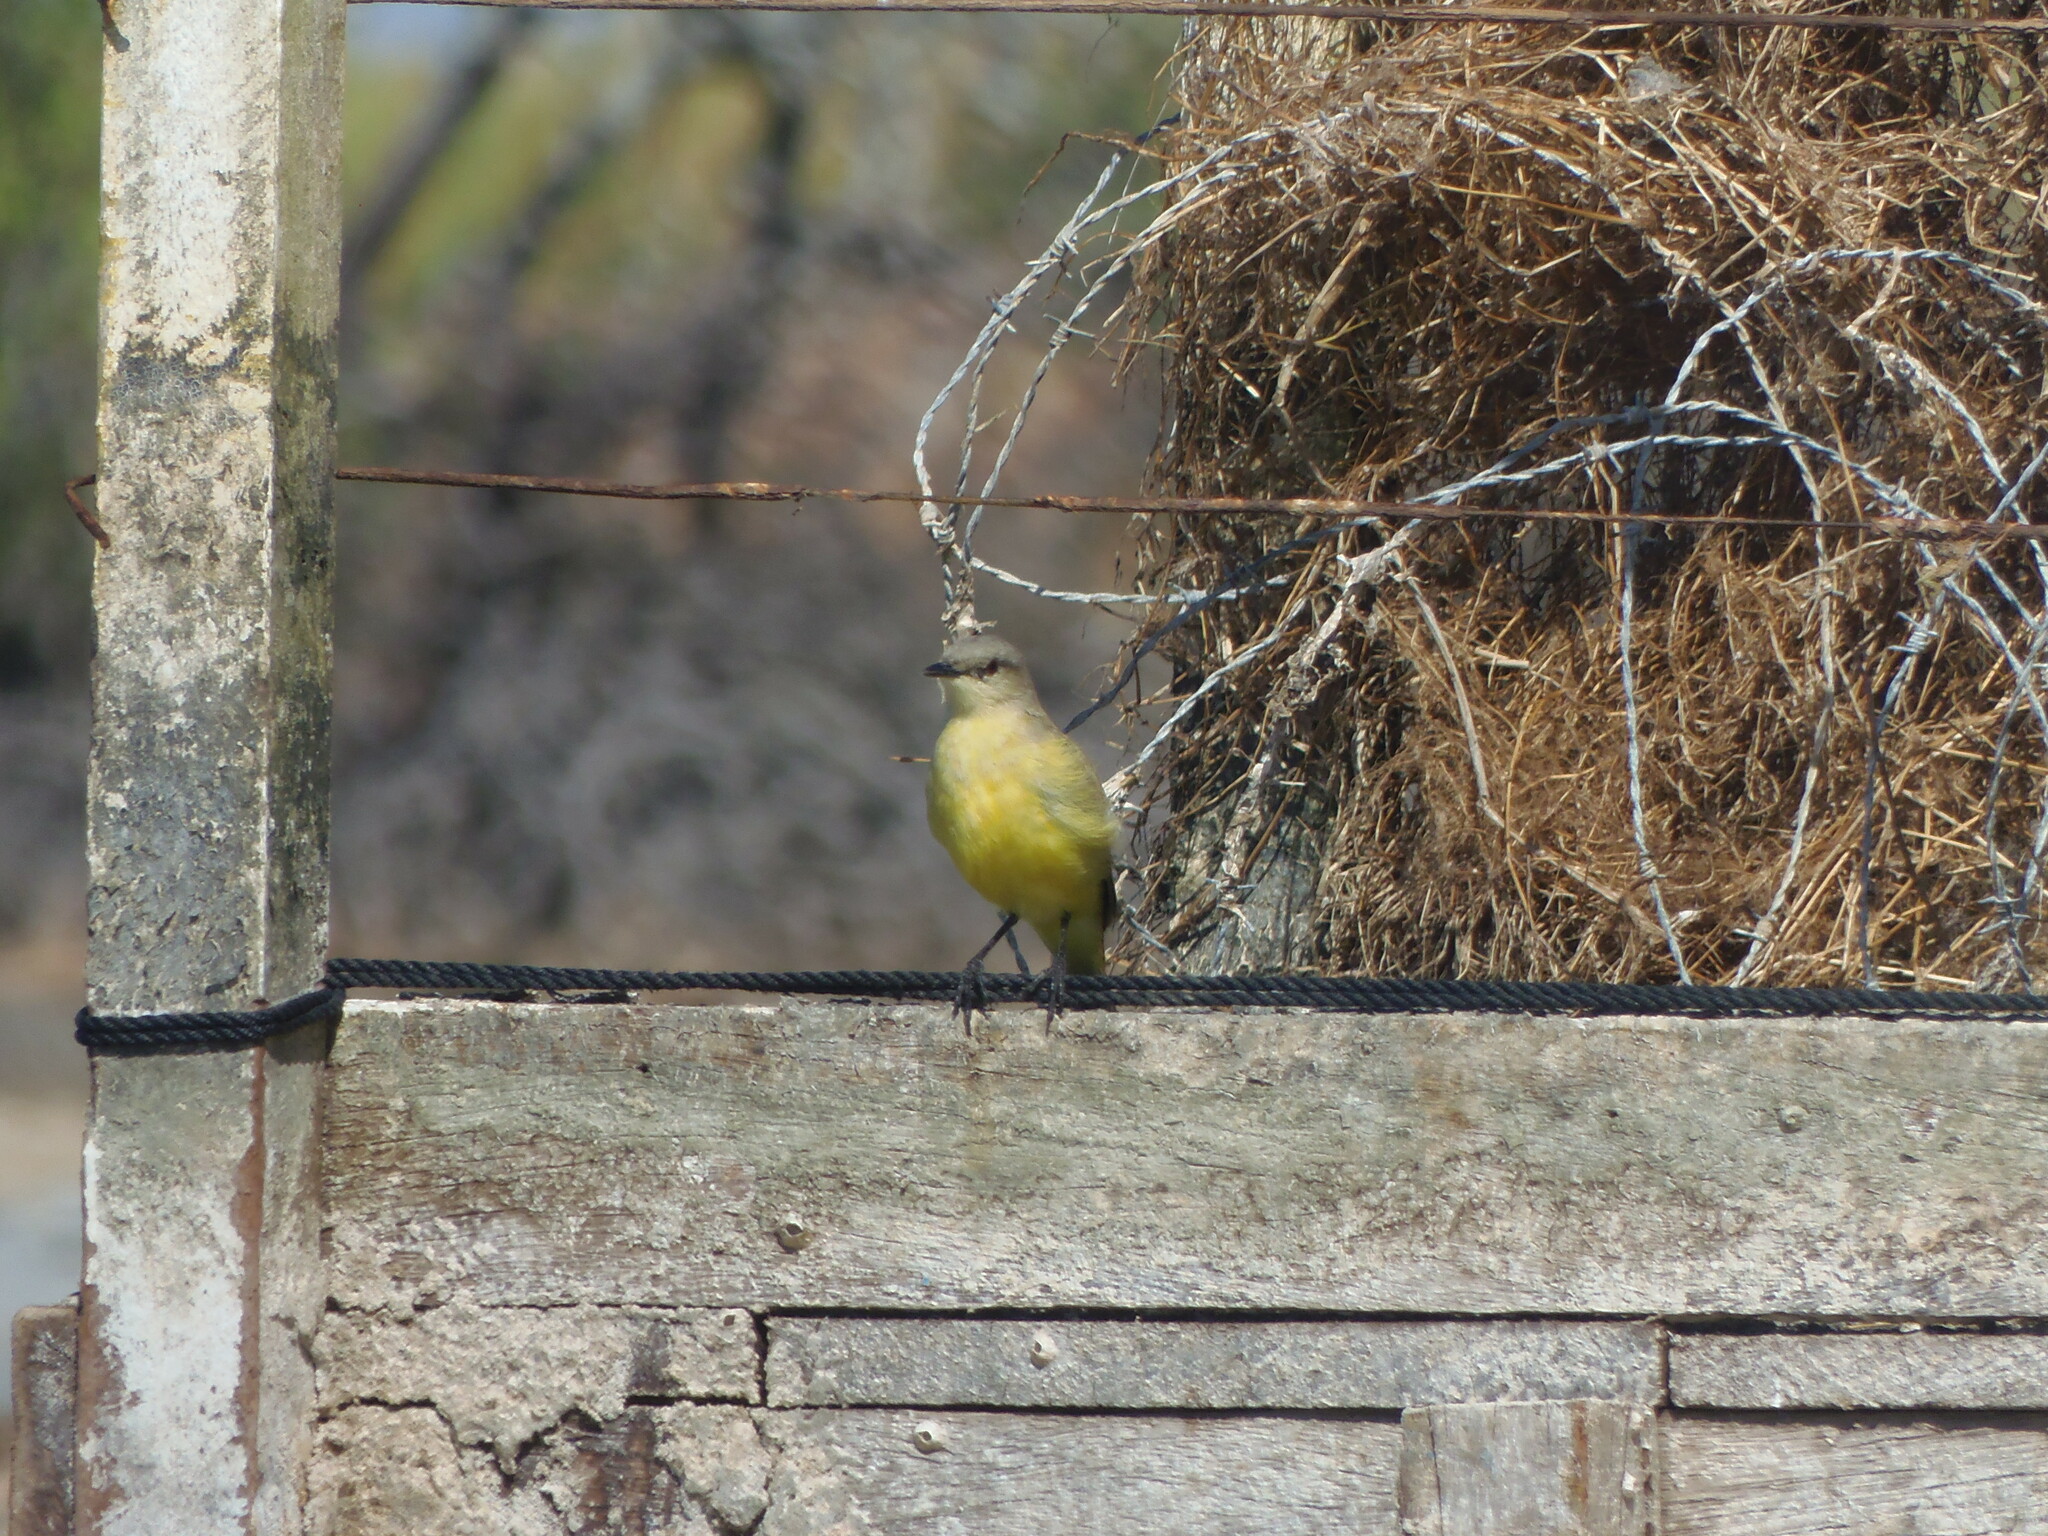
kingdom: Animalia
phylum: Chordata
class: Aves
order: Passeriformes
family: Tyrannidae
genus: Machetornis
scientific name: Machetornis rixosa
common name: Cattle tyrant
